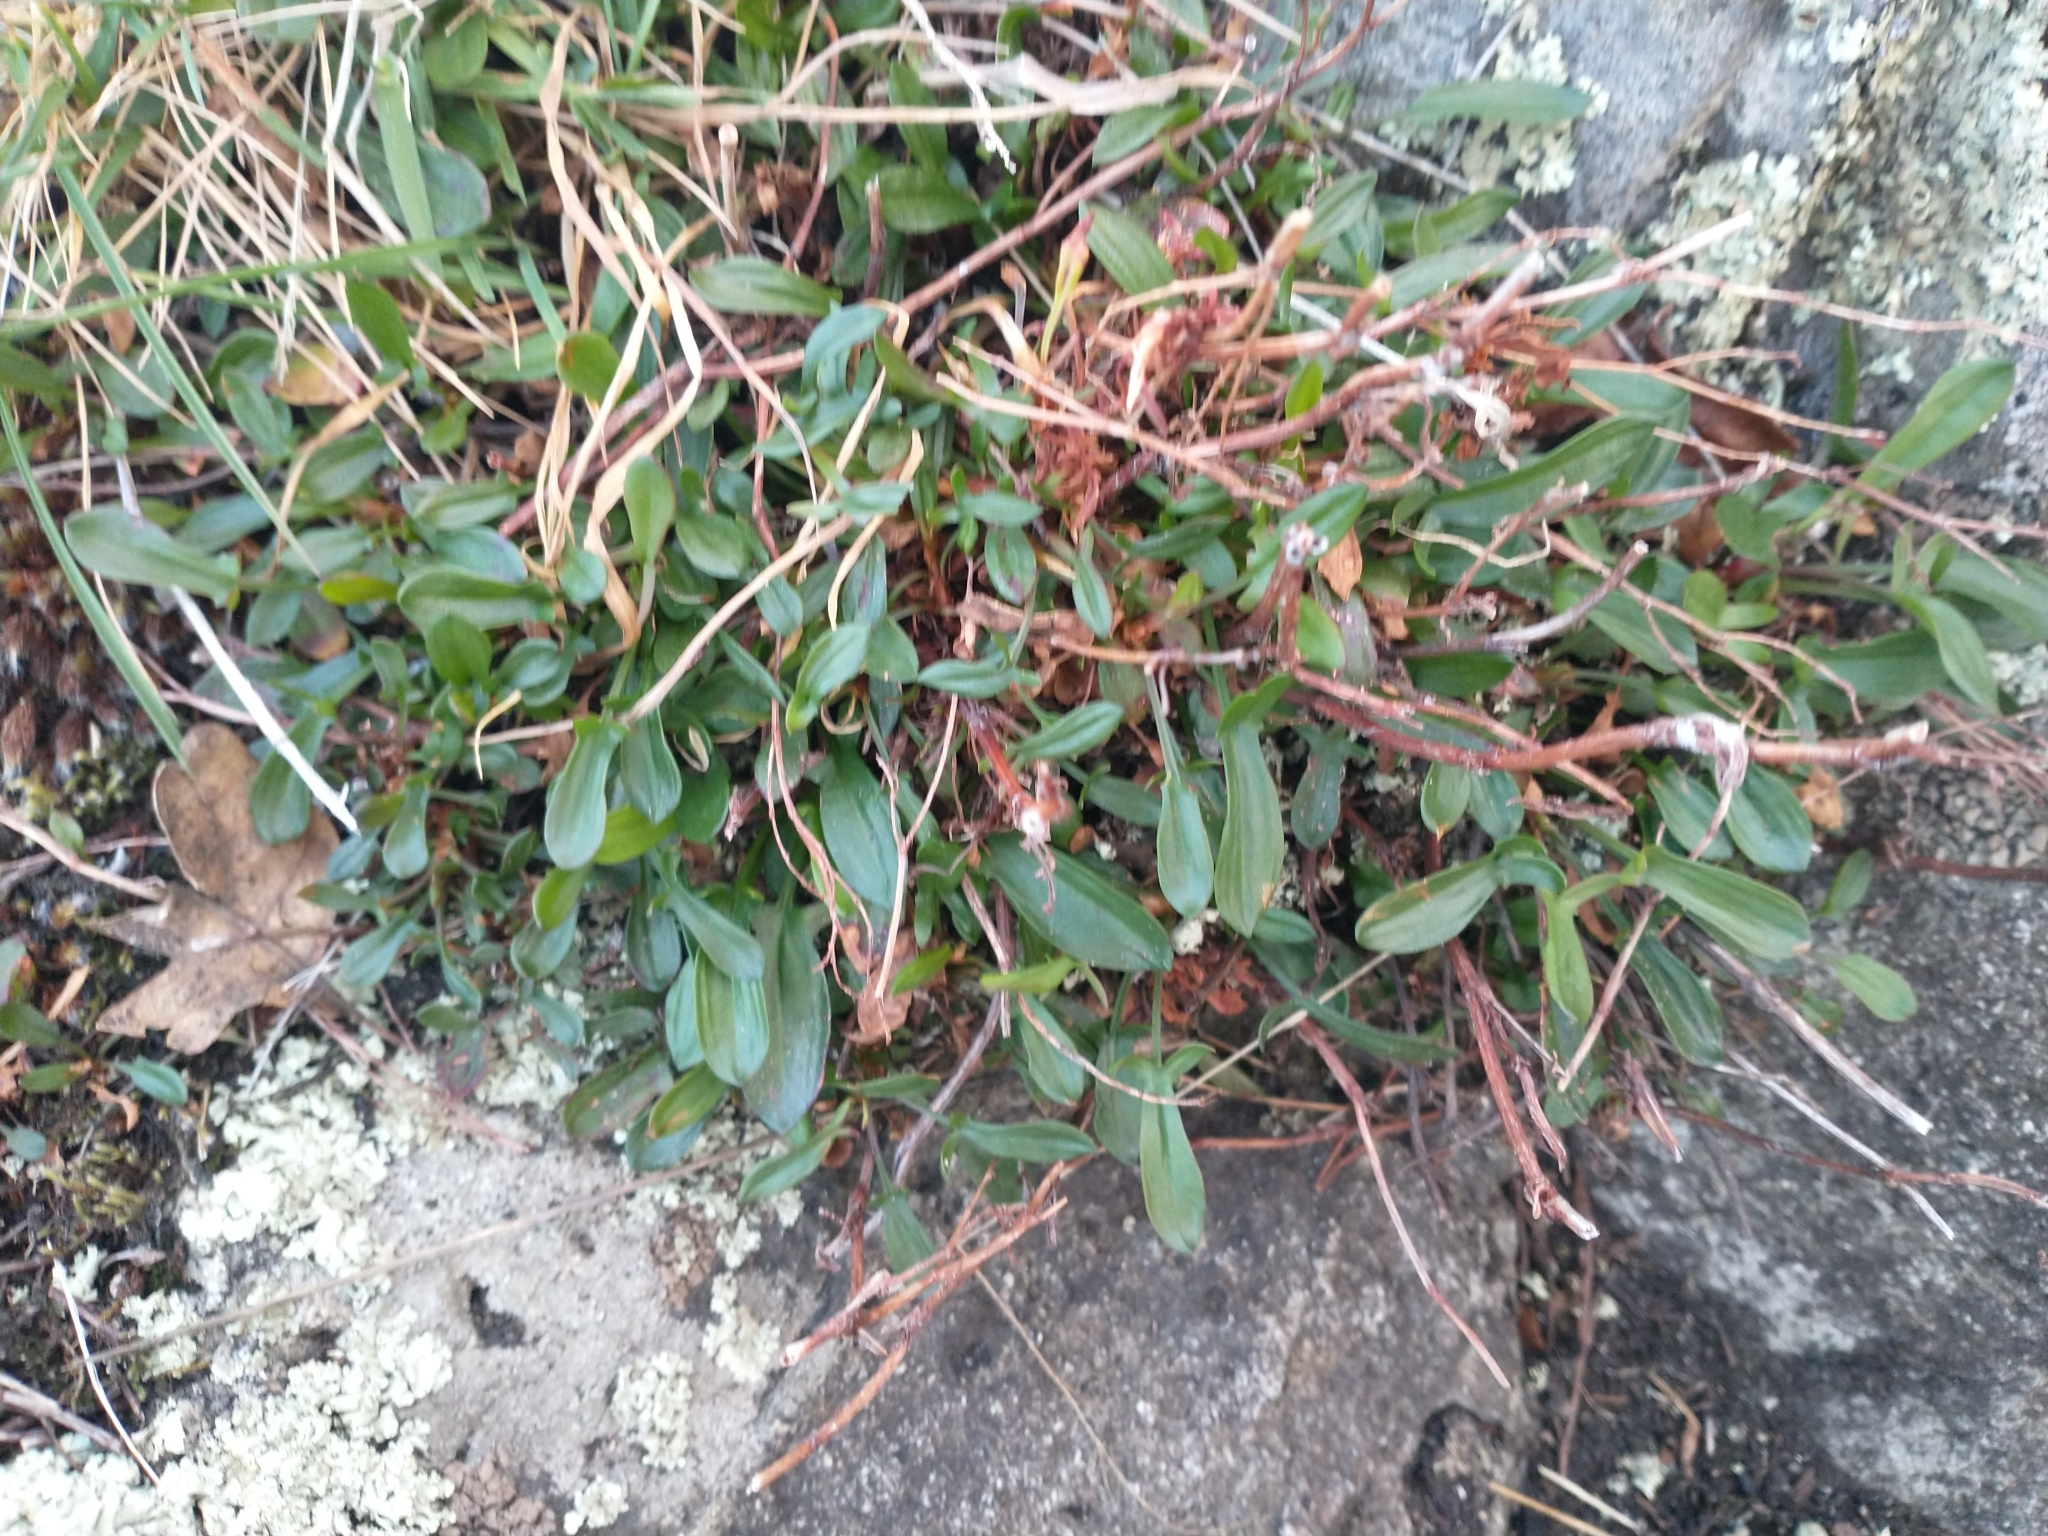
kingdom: Plantae
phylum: Tracheophyta
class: Magnoliopsida
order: Caryophyllales
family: Polygonaceae
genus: Rumex
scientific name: Rumex acetosella
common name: Common sheep sorrel
